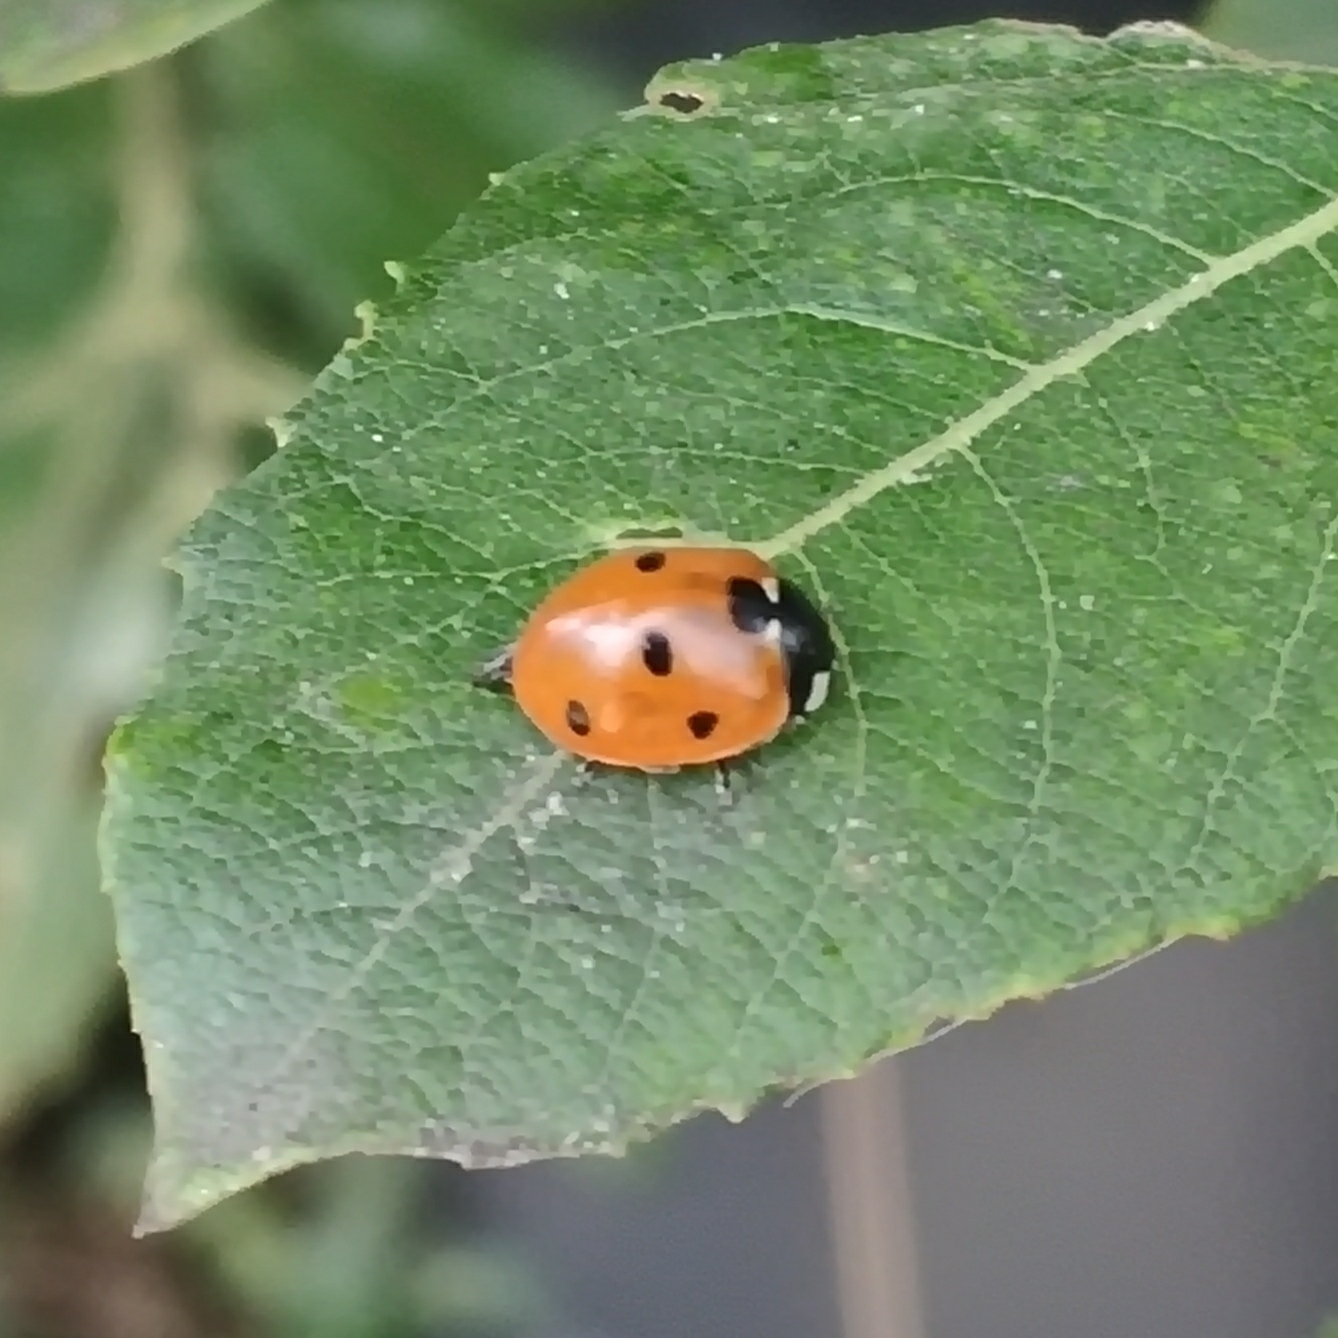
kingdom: Animalia
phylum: Arthropoda
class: Insecta
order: Coleoptera
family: Coccinellidae
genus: Coccinella
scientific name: Coccinella septempunctata
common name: Sevenspotted lady beetle
